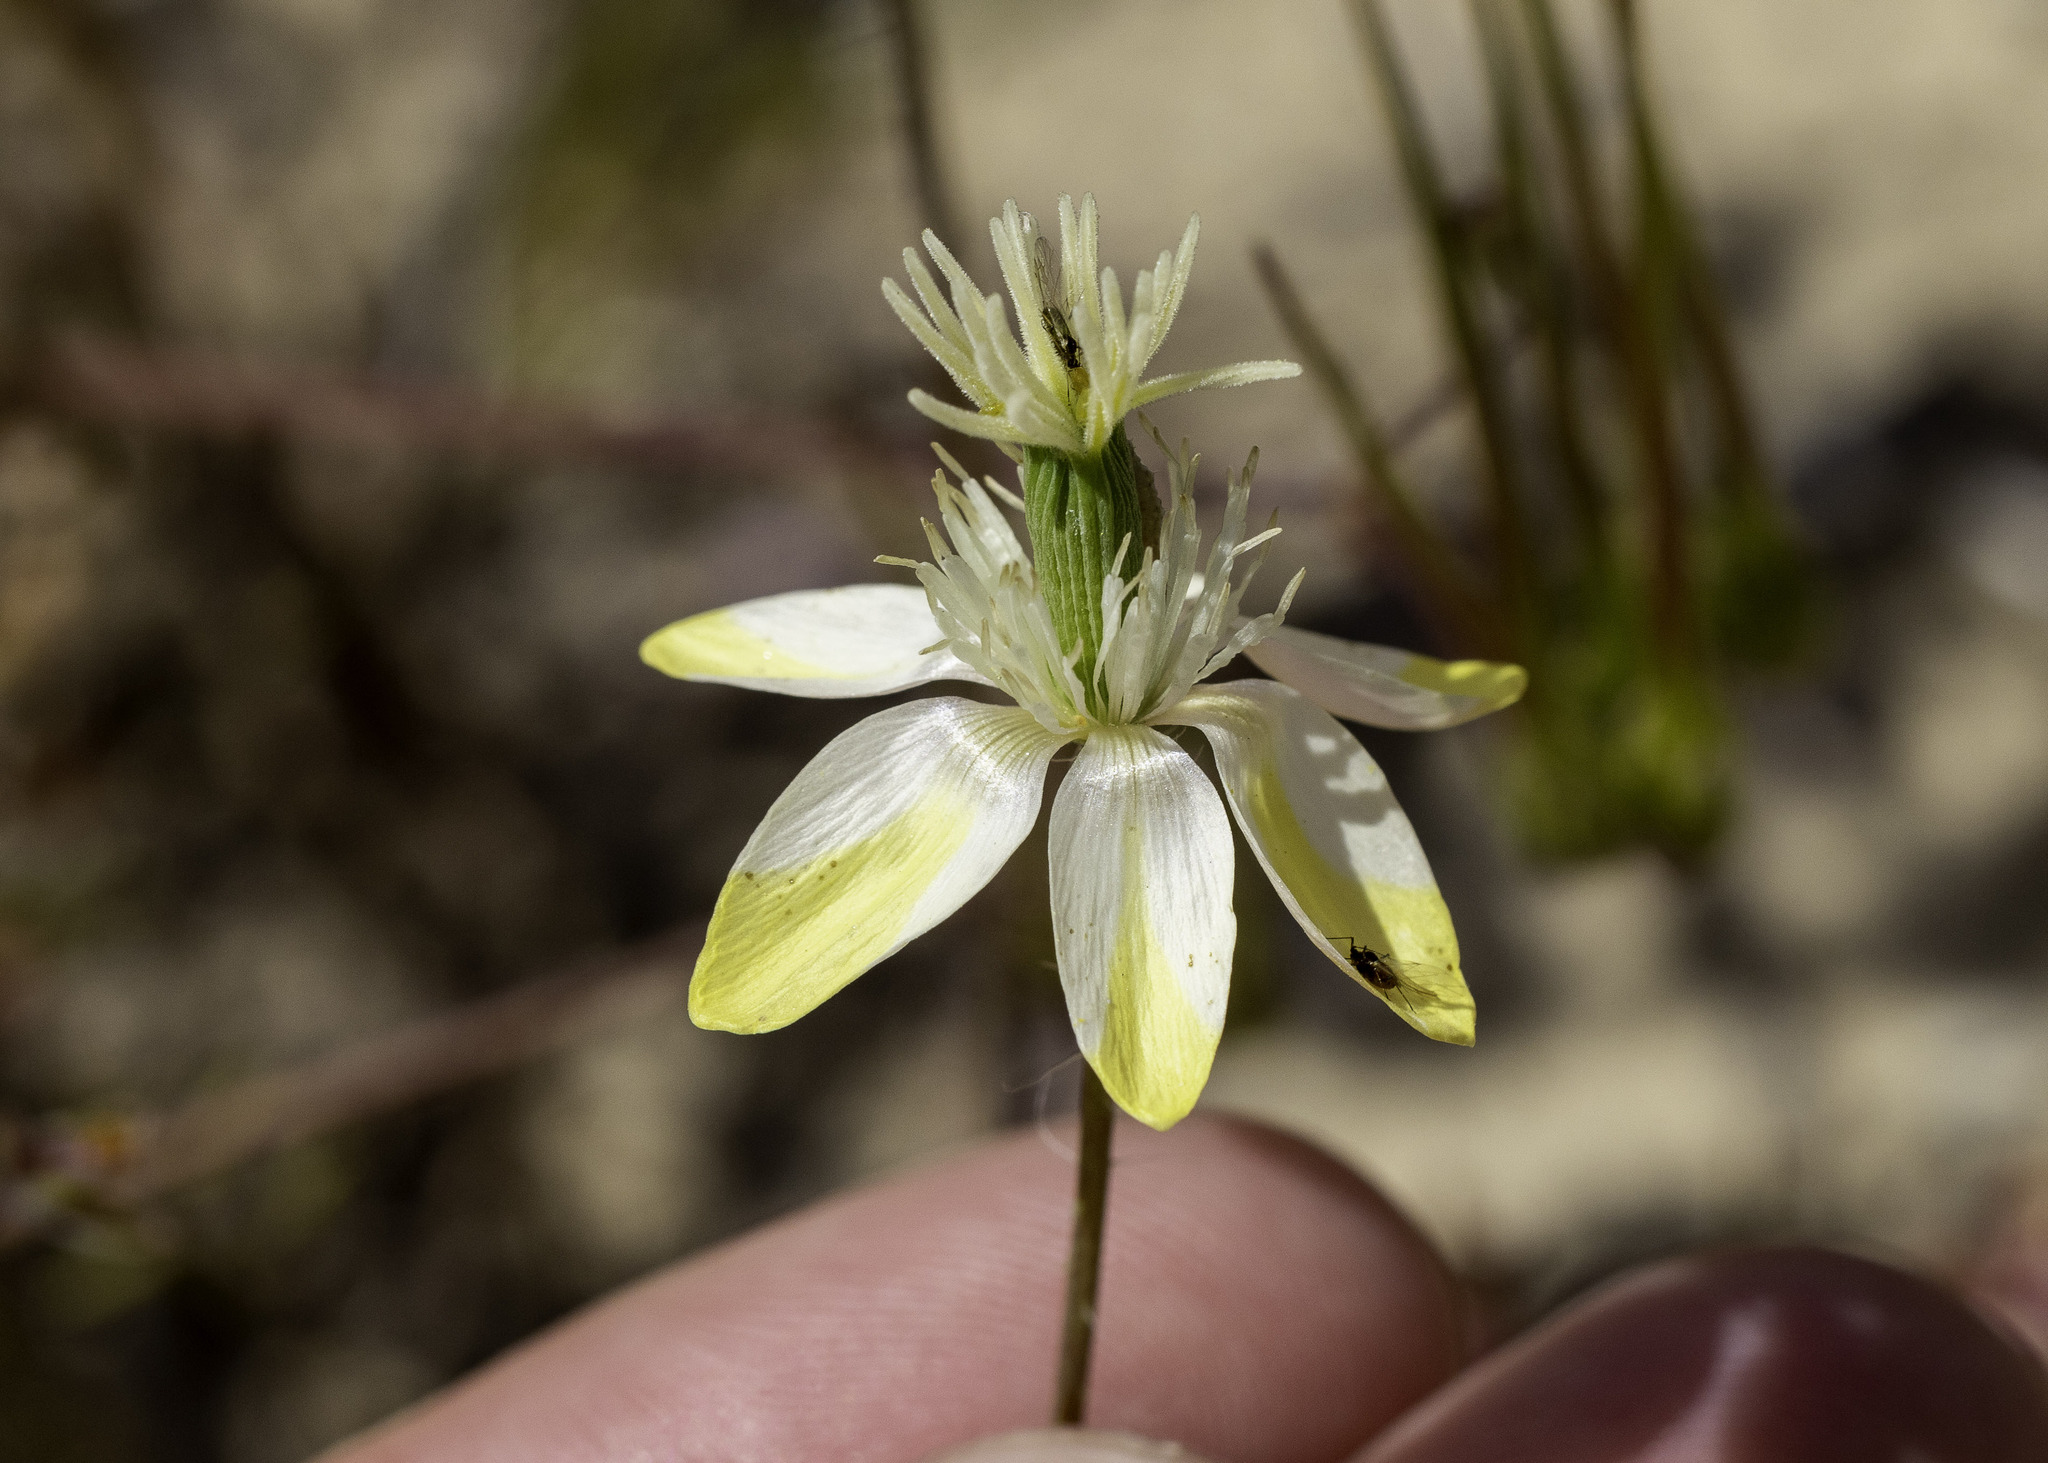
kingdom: Plantae
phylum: Tracheophyta
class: Magnoliopsida
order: Ranunculales
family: Papaveraceae
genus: Platystemon
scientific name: Platystemon californicus
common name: Cream-cups
